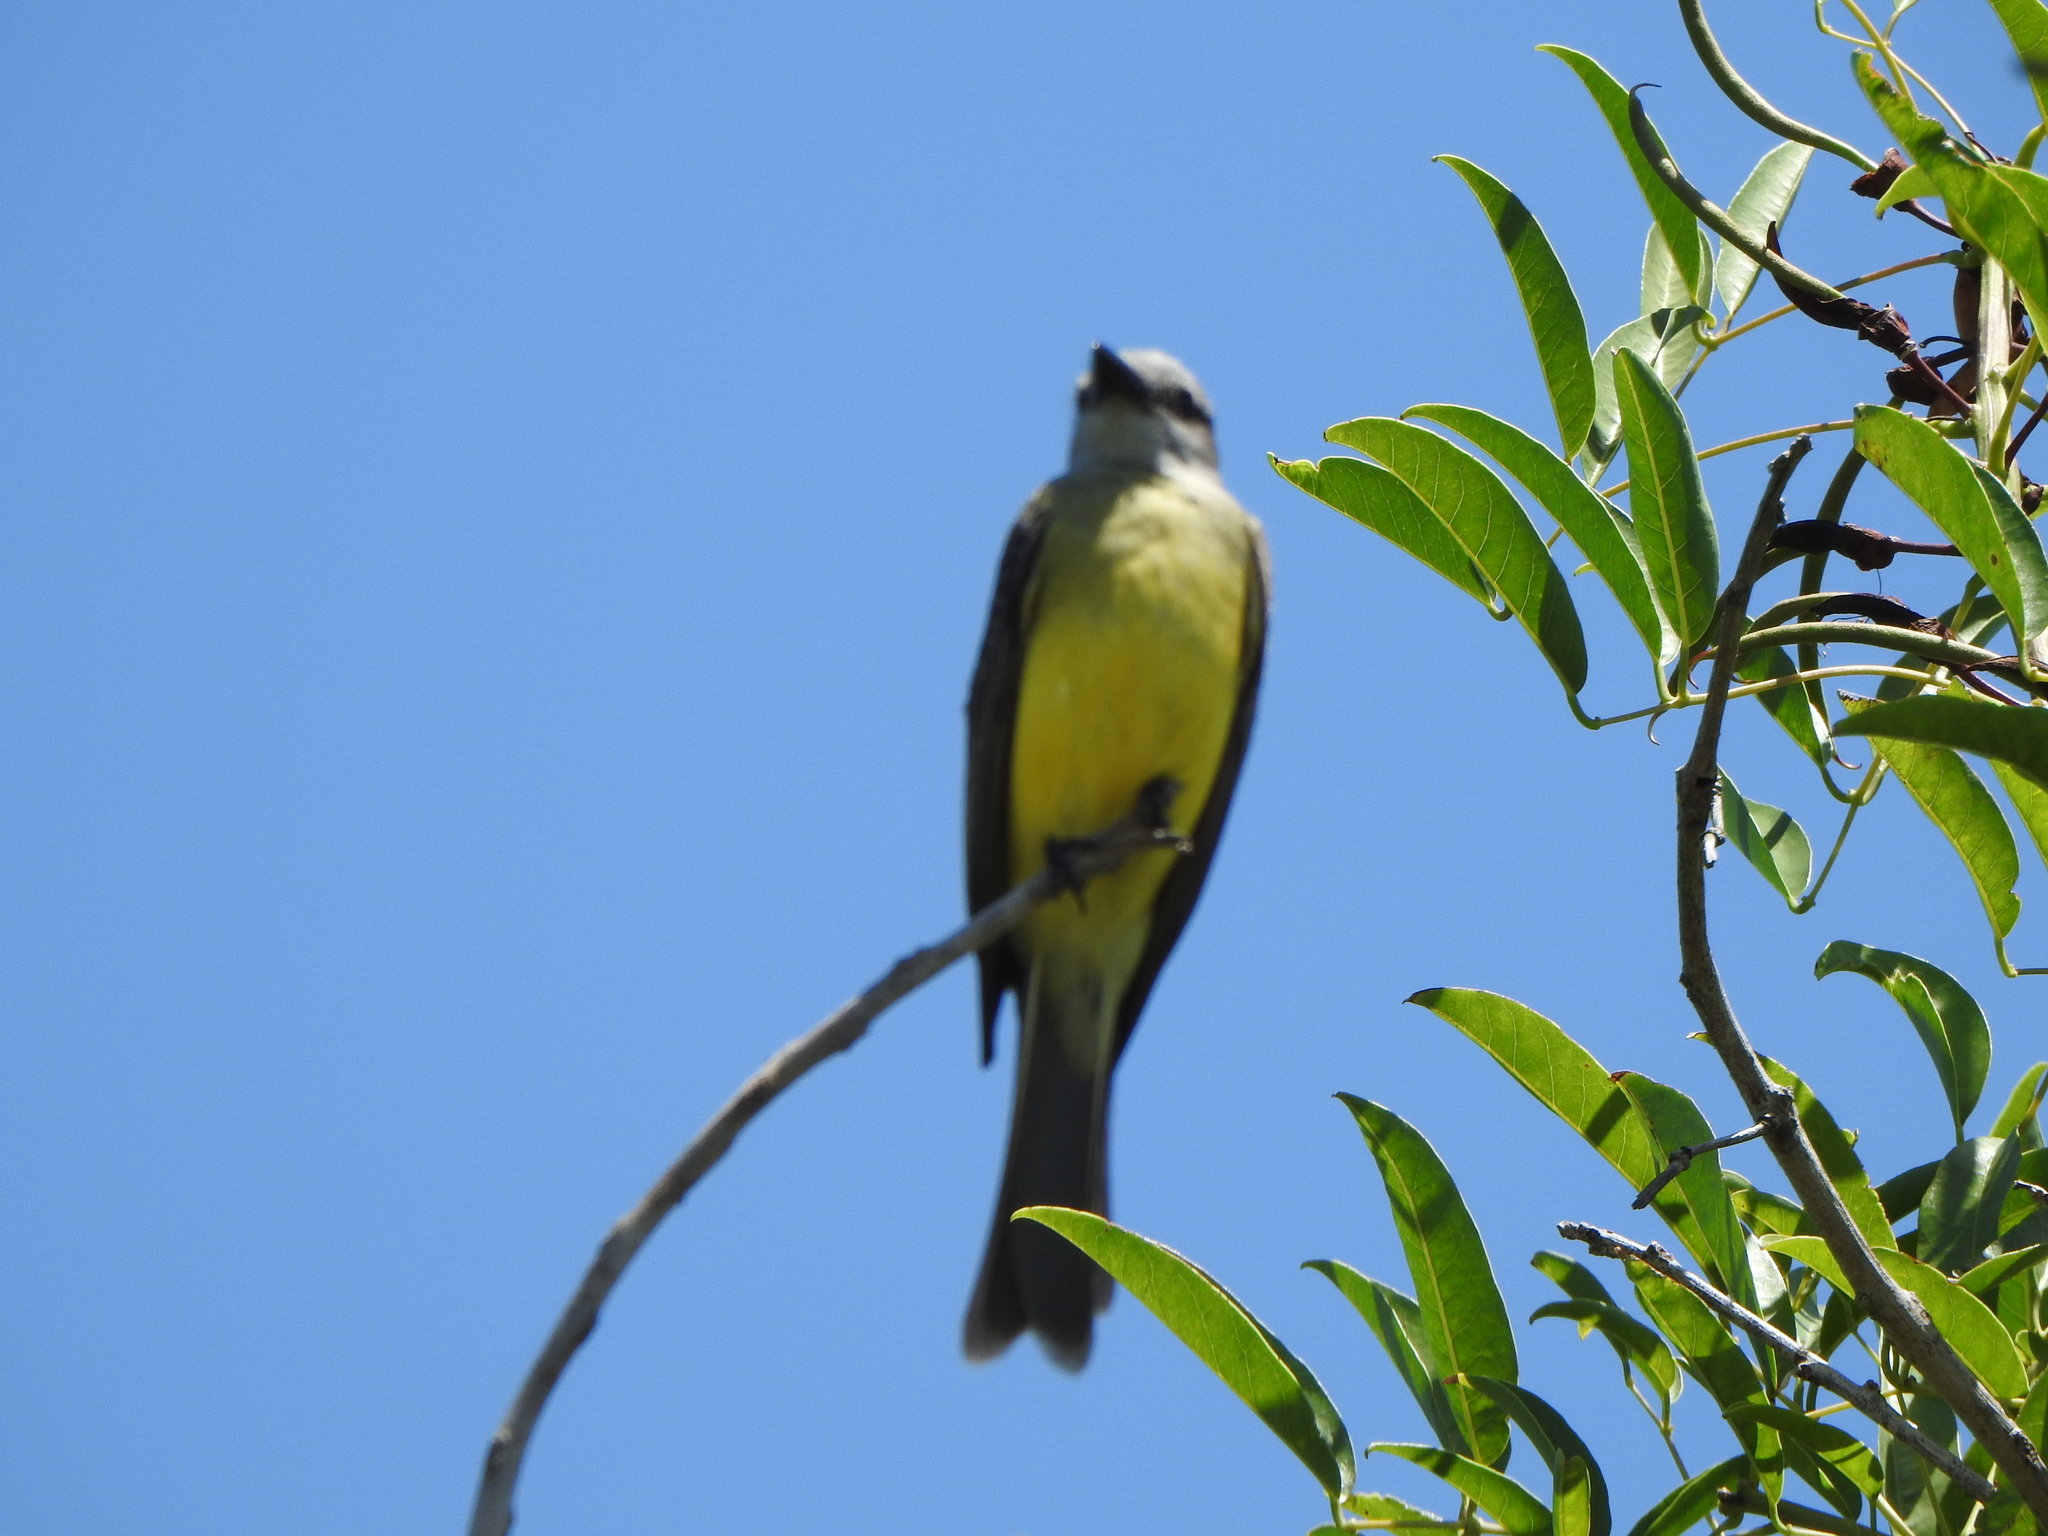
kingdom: Animalia
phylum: Chordata
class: Aves
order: Passeriformes
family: Tyrannidae
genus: Tyrannus
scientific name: Tyrannus melancholicus
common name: Tropical kingbird
